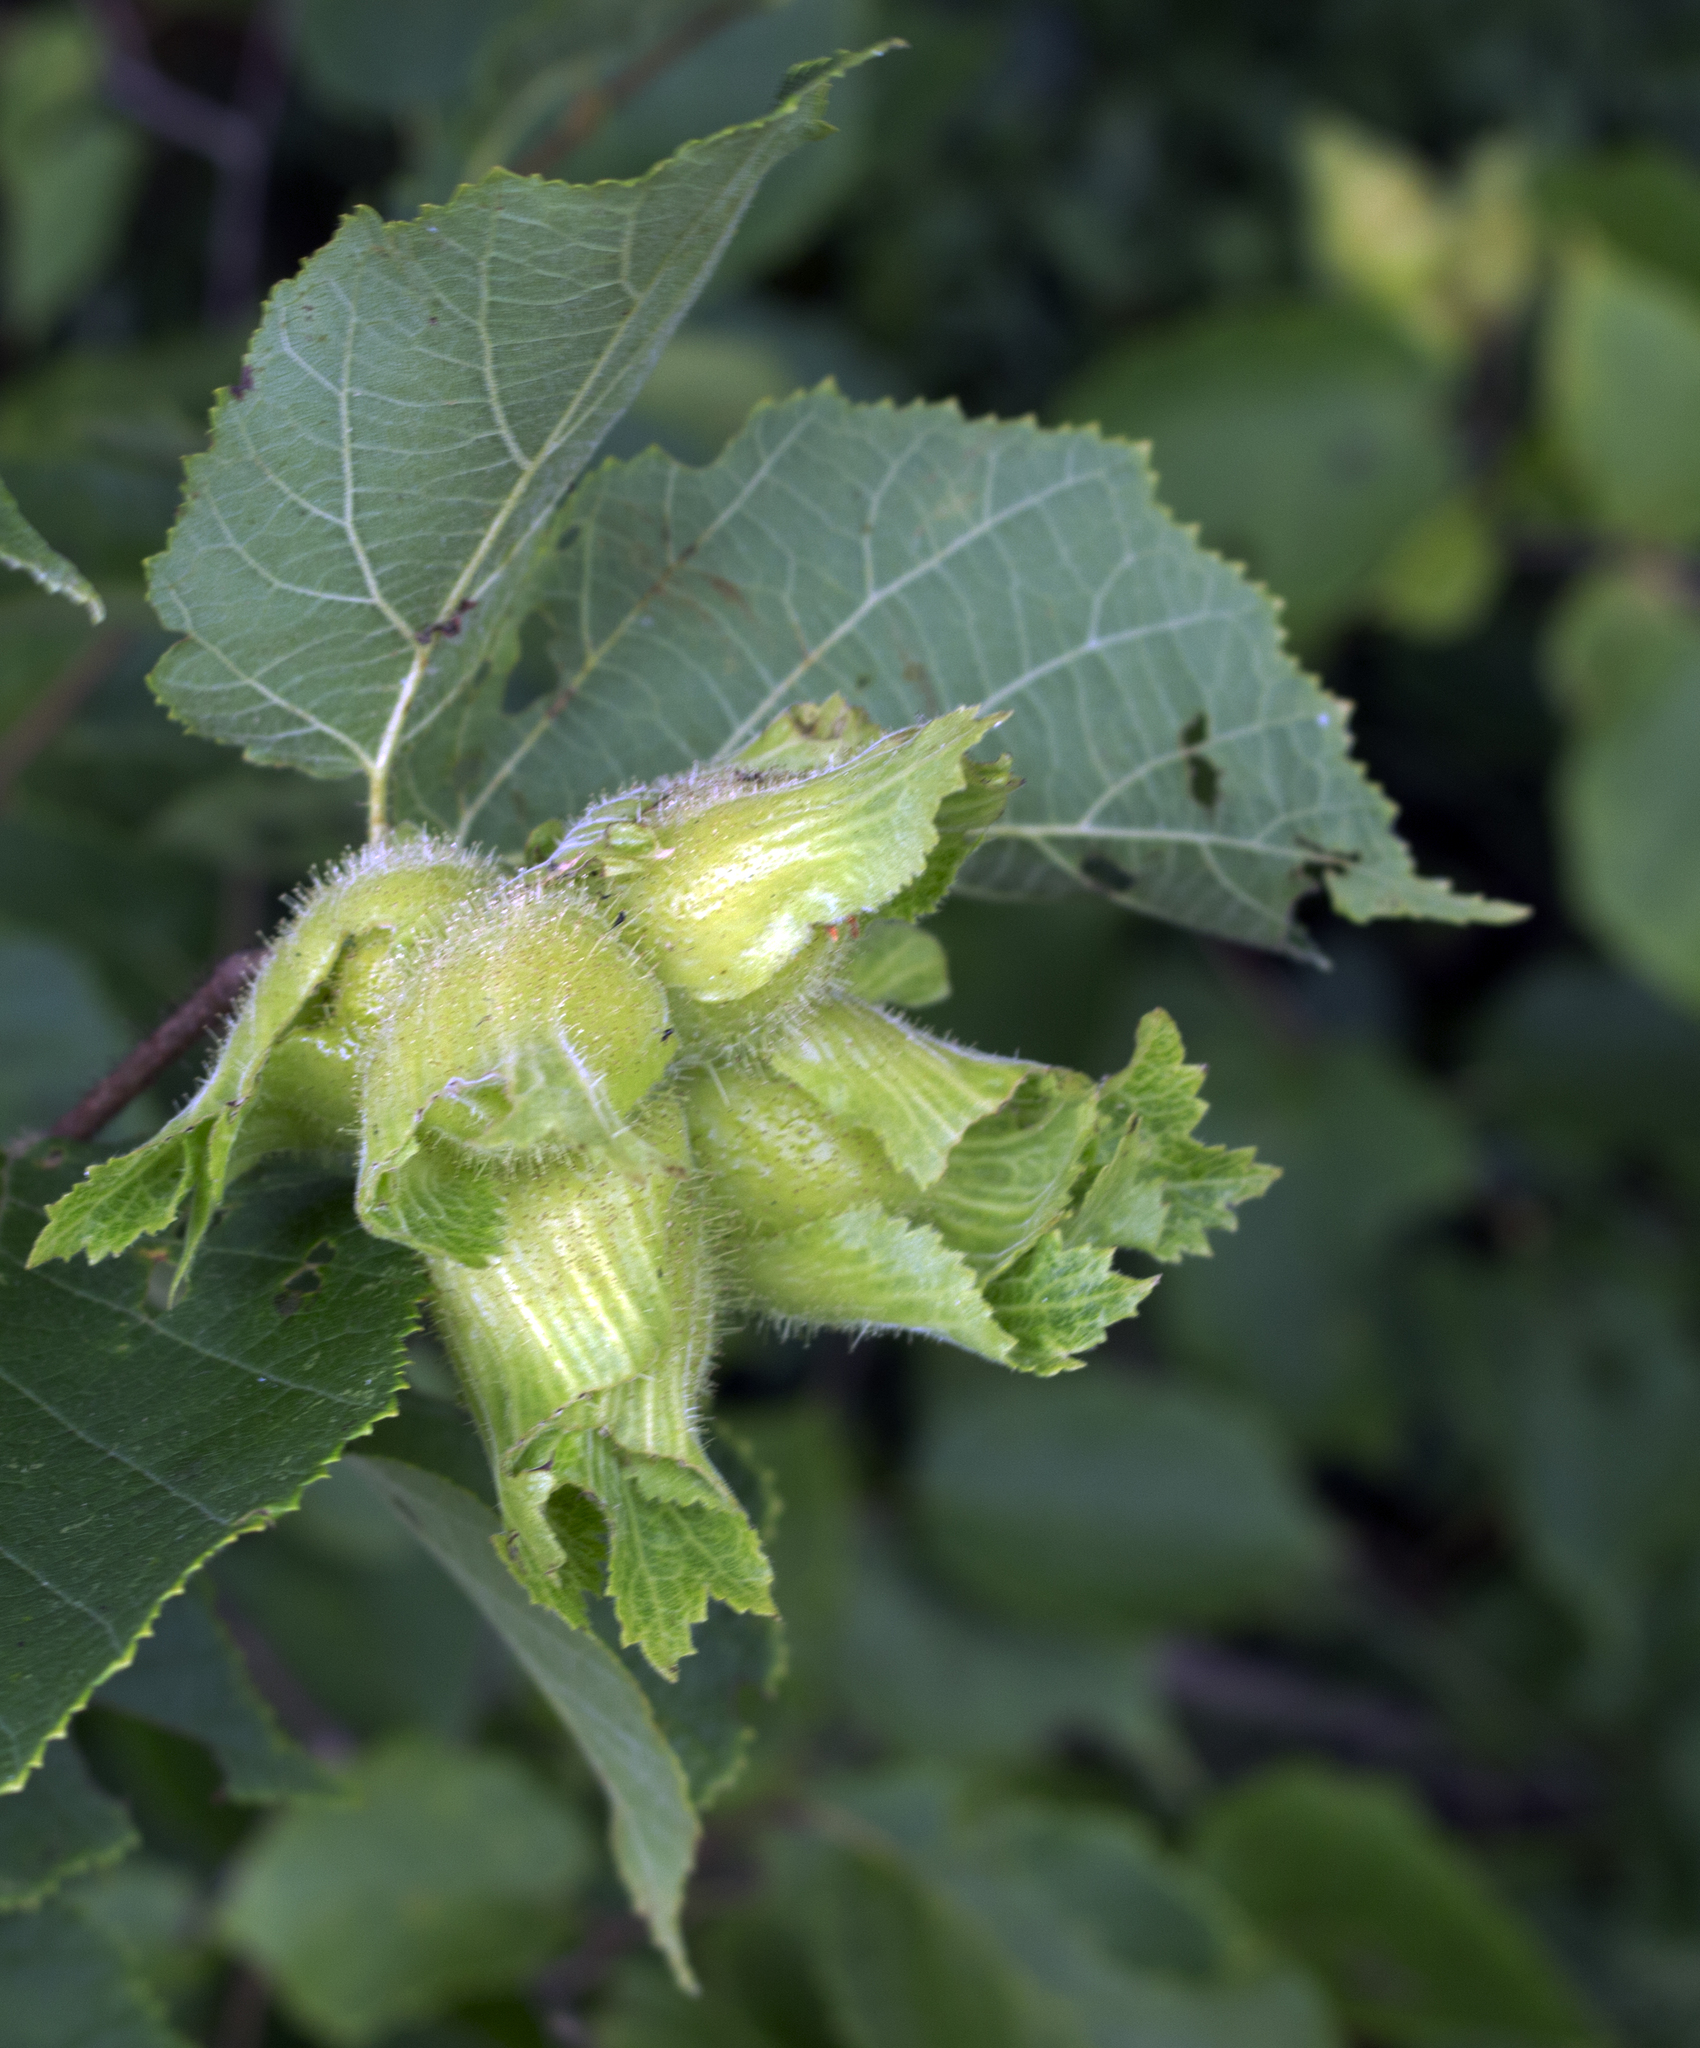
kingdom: Plantae
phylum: Tracheophyta
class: Magnoliopsida
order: Fagales
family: Betulaceae
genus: Corylus
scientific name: Corylus americana
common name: American hazel
